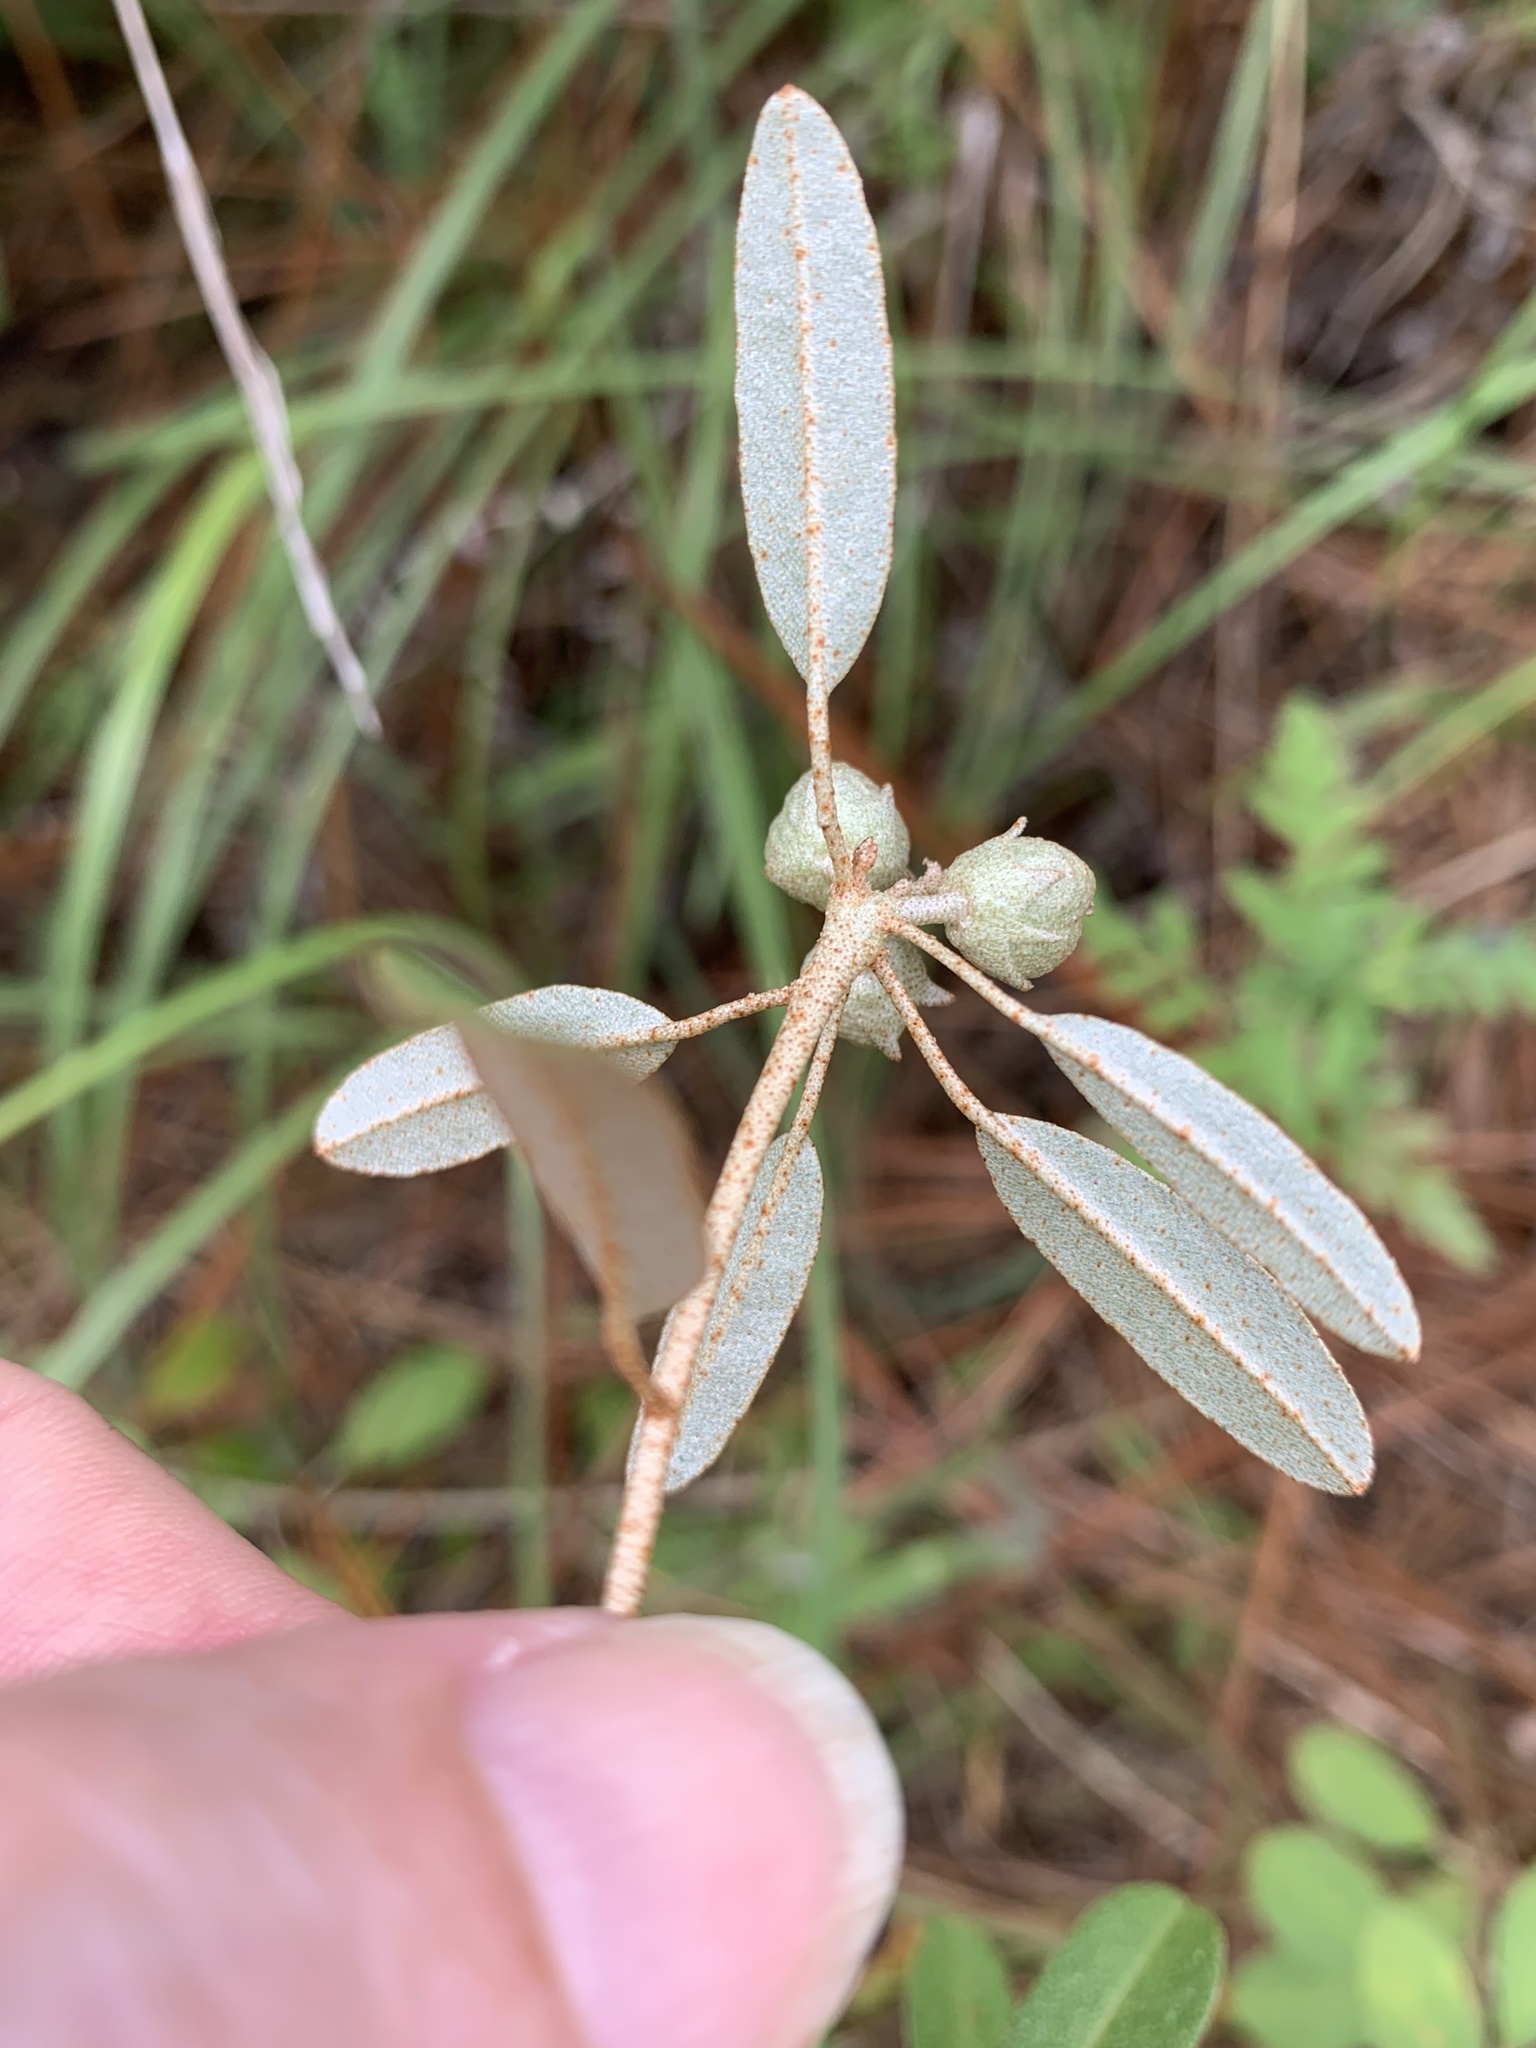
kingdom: Plantae
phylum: Tracheophyta
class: Magnoliopsida
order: Malpighiales
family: Euphorbiaceae
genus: Croton
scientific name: Croton argyranthemus
